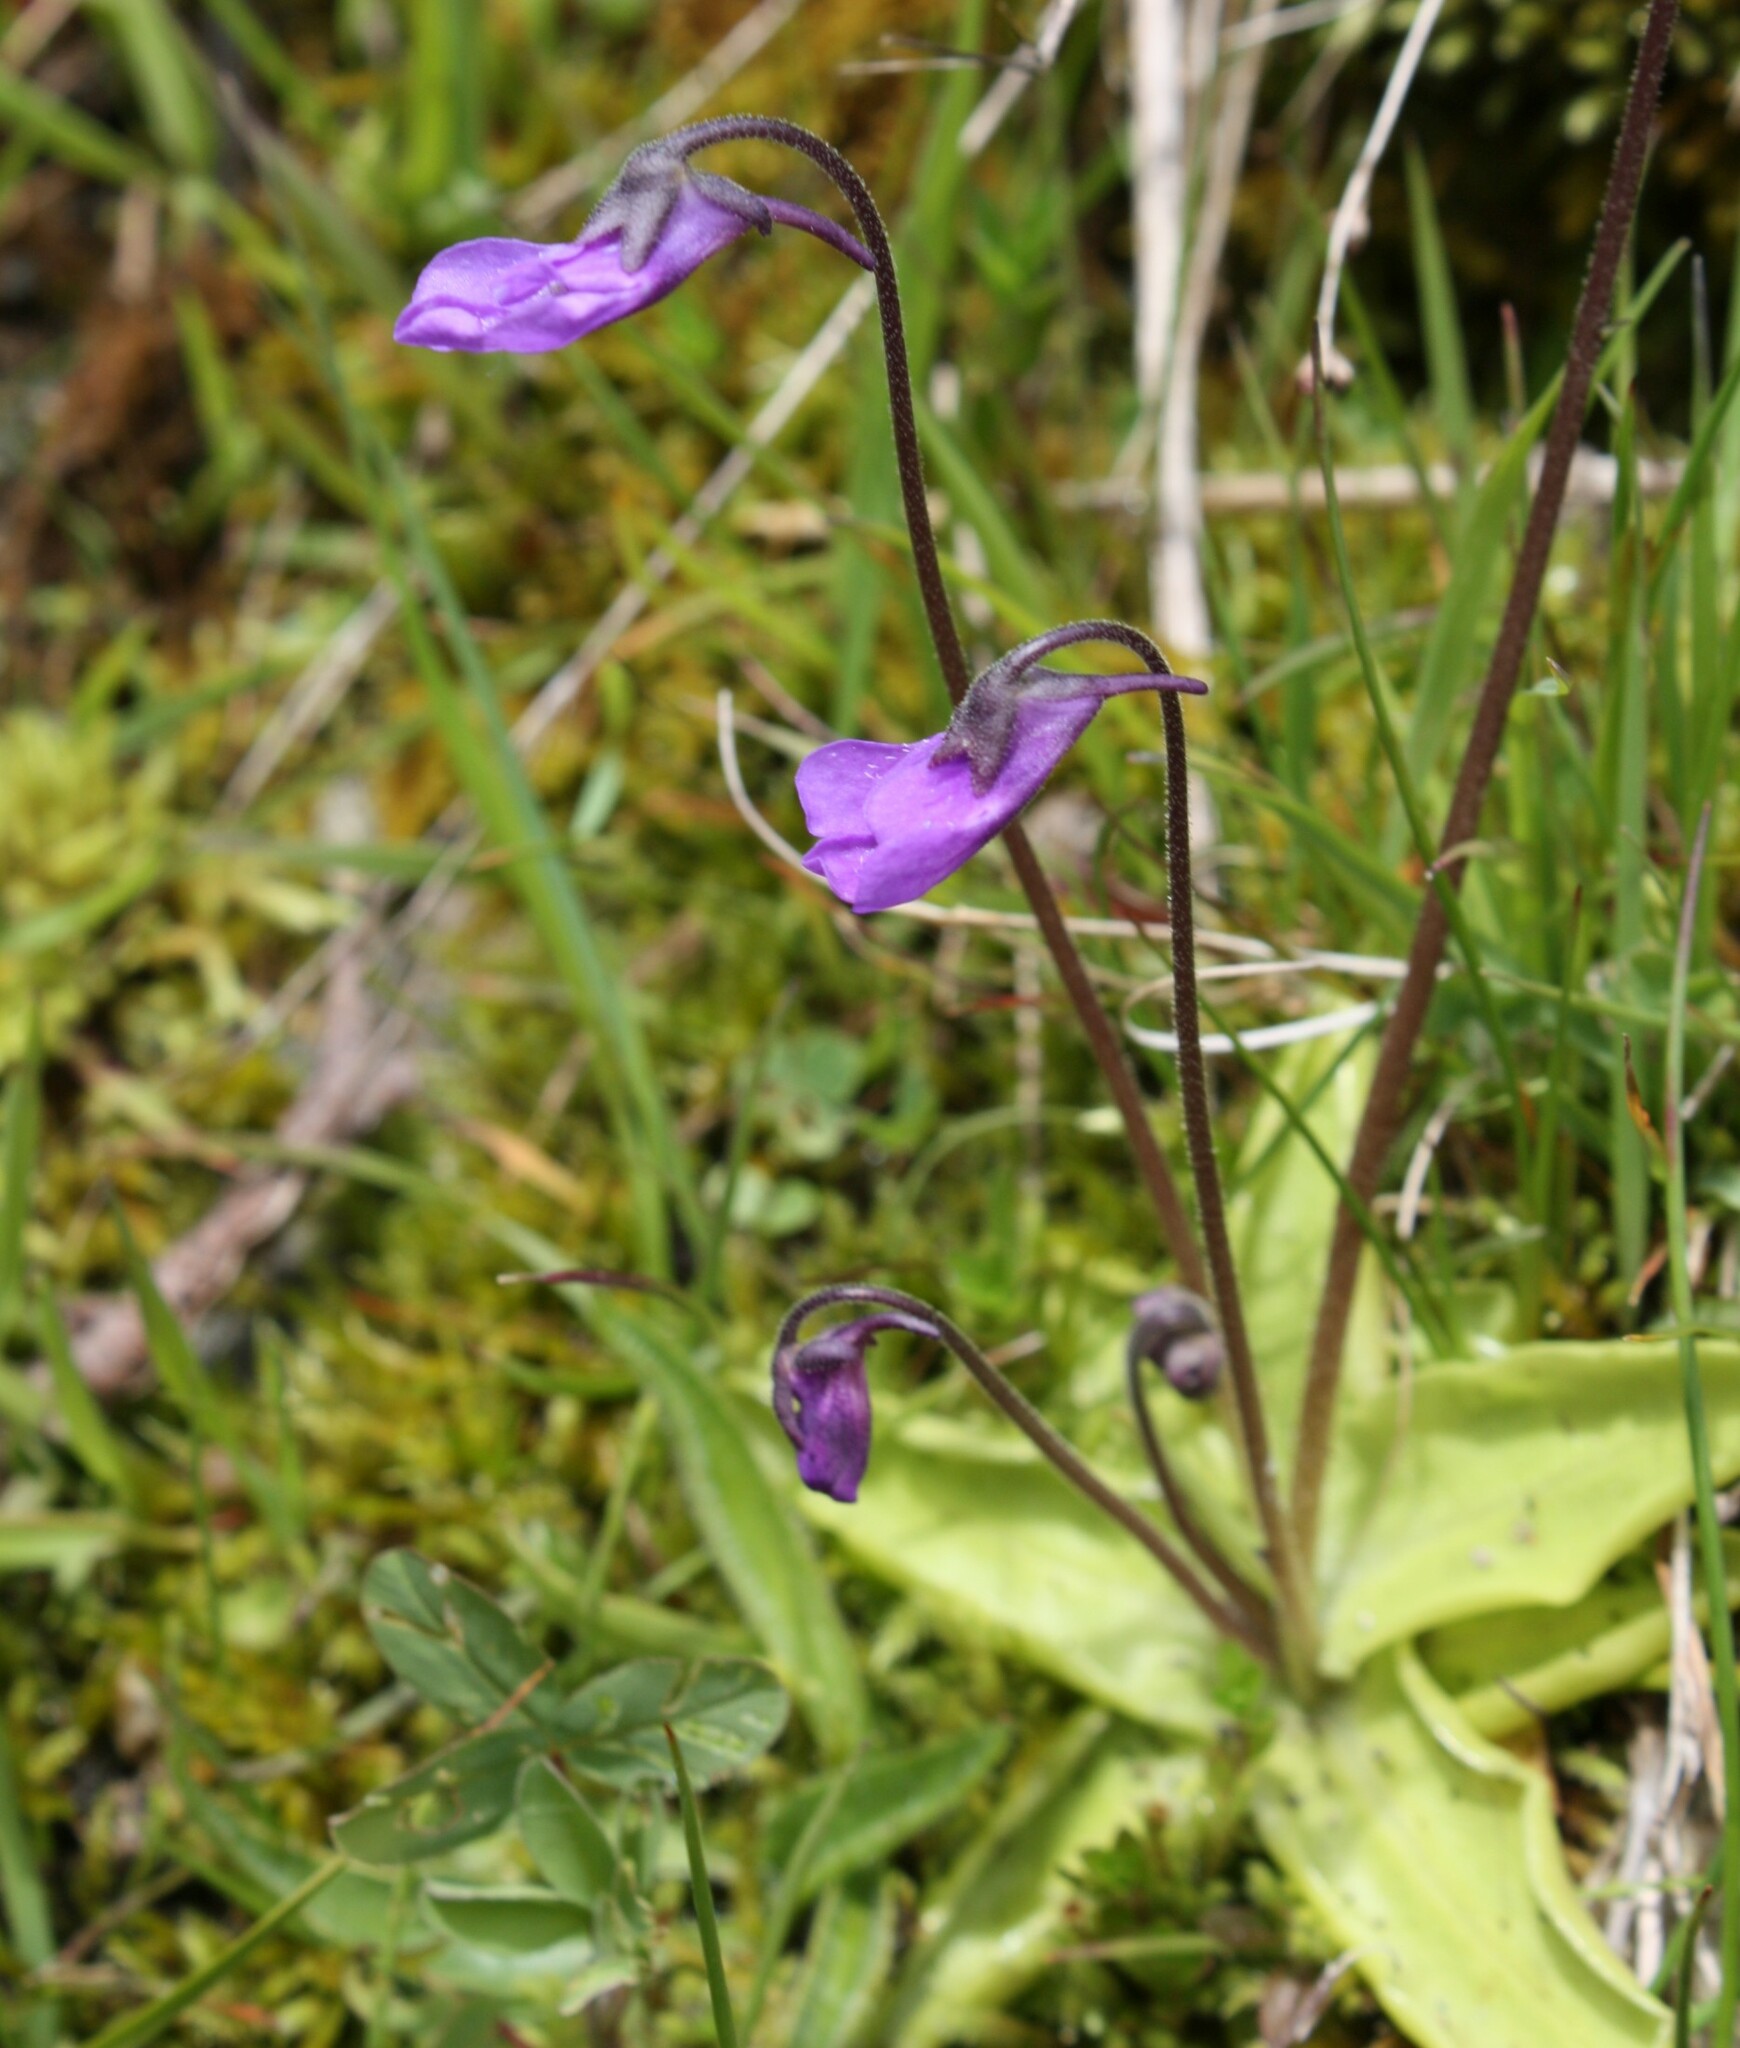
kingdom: Plantae
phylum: Tracheophyta
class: Magnoliopsida
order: Lamiales
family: Lentibulariaceae
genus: Pinguicula
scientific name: Pinguicula vulgaris
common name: Common butterwort
